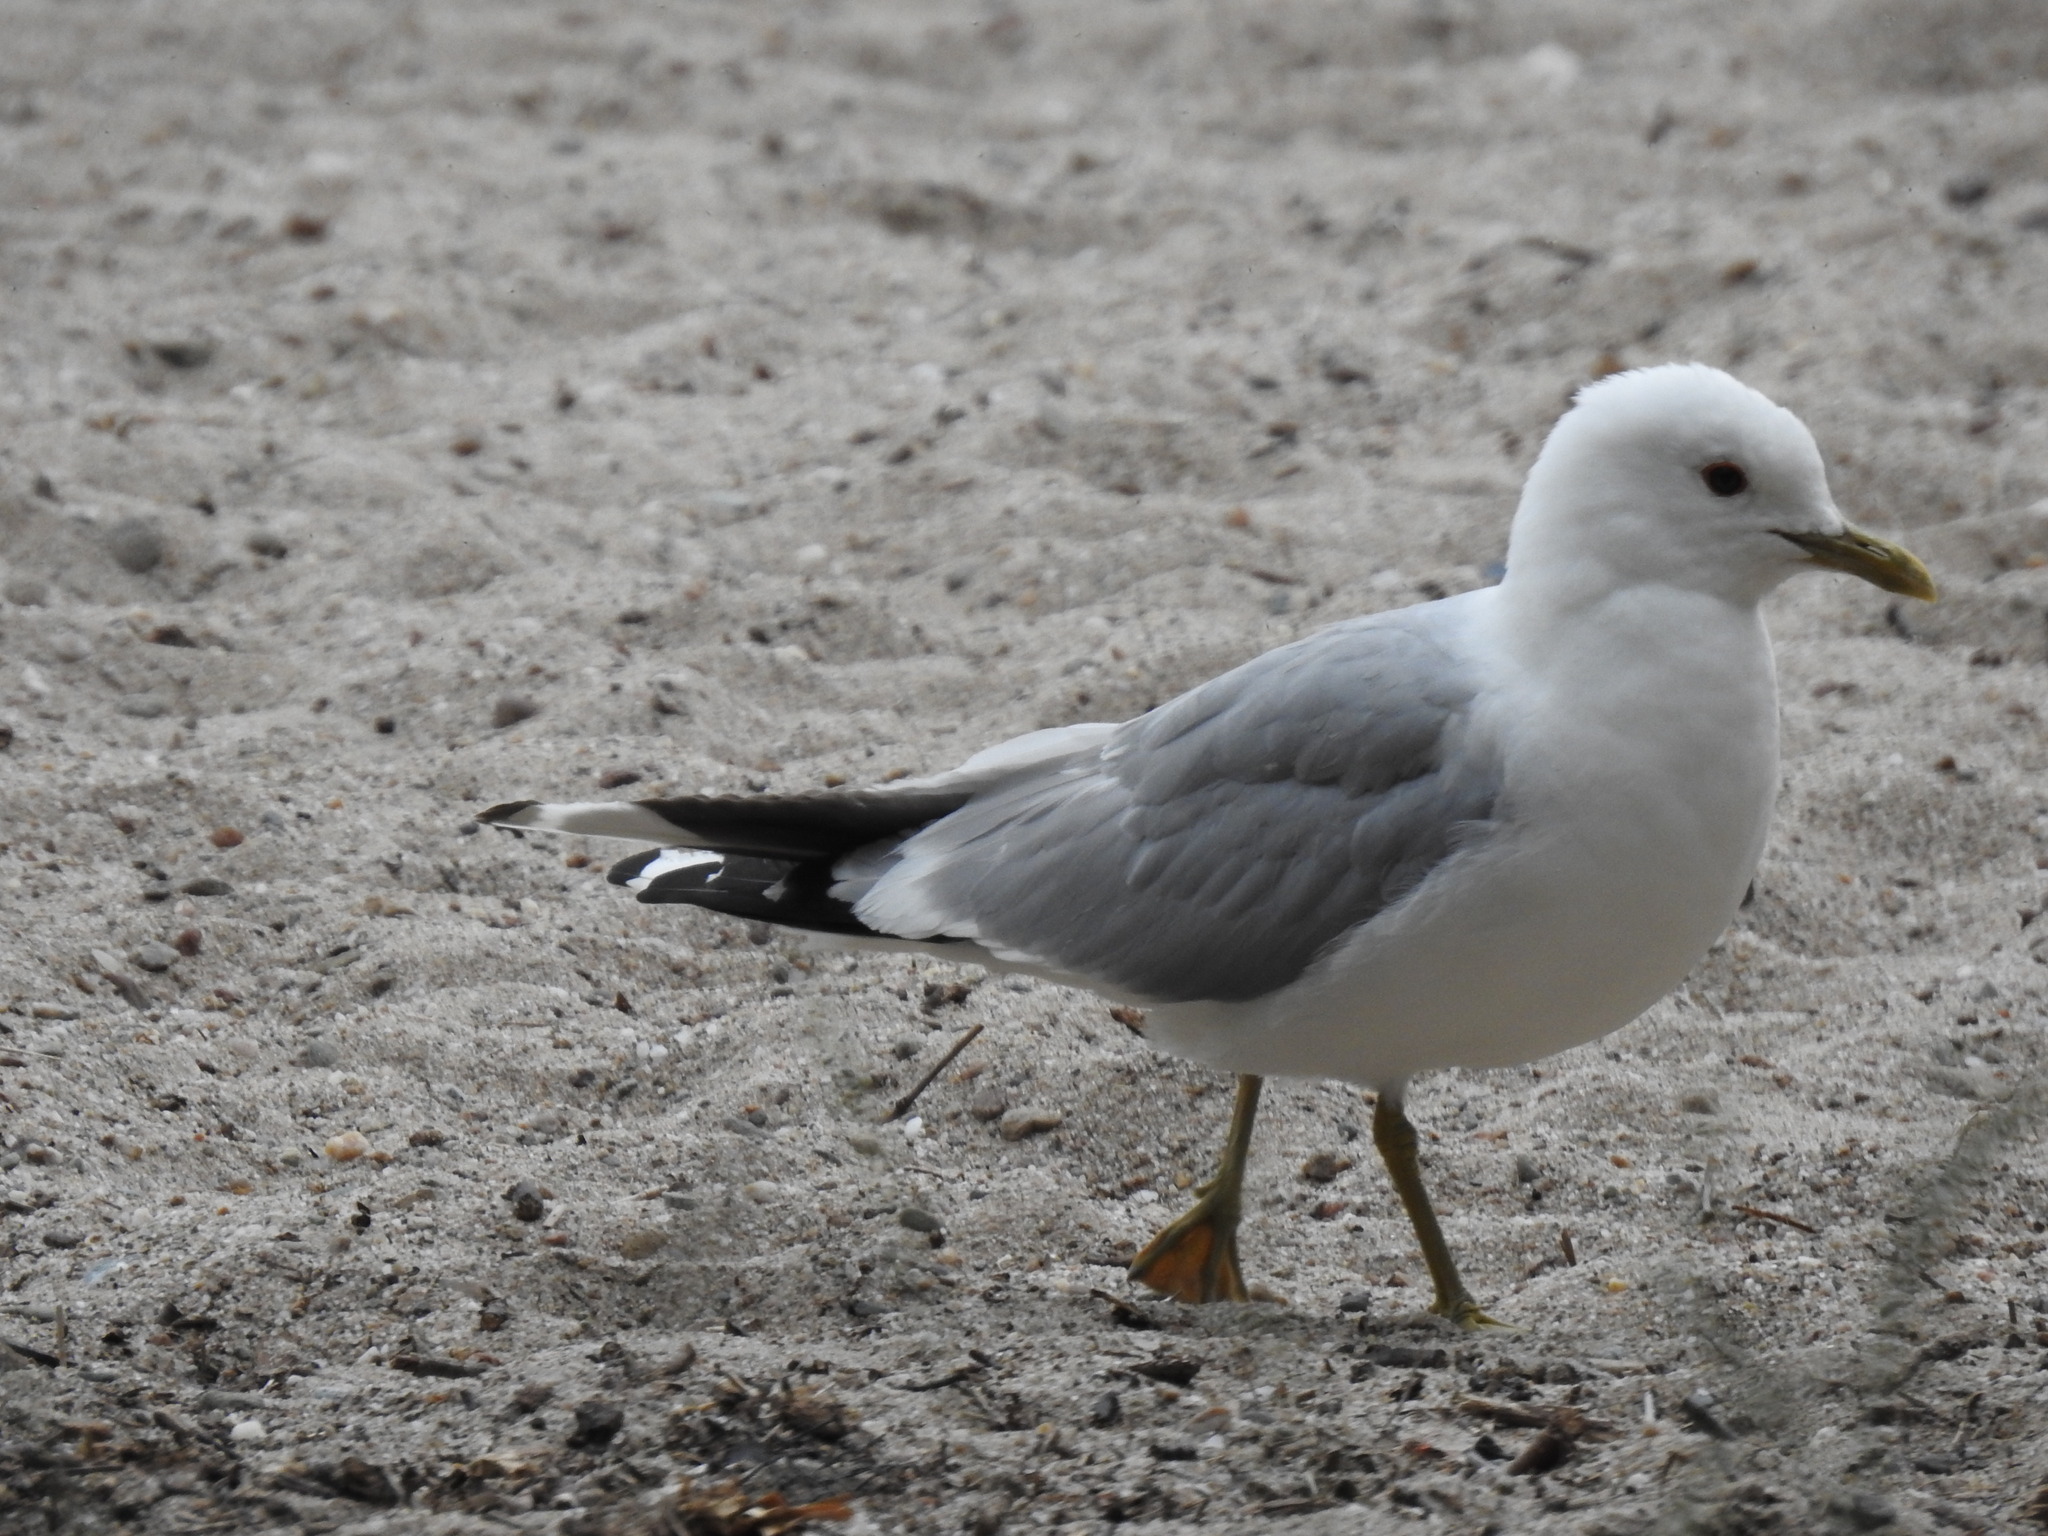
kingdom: Animalia
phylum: Chordata
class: Aves
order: Charadriiformes
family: Laridae
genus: Larus
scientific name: Larus canus
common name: Mew gull
